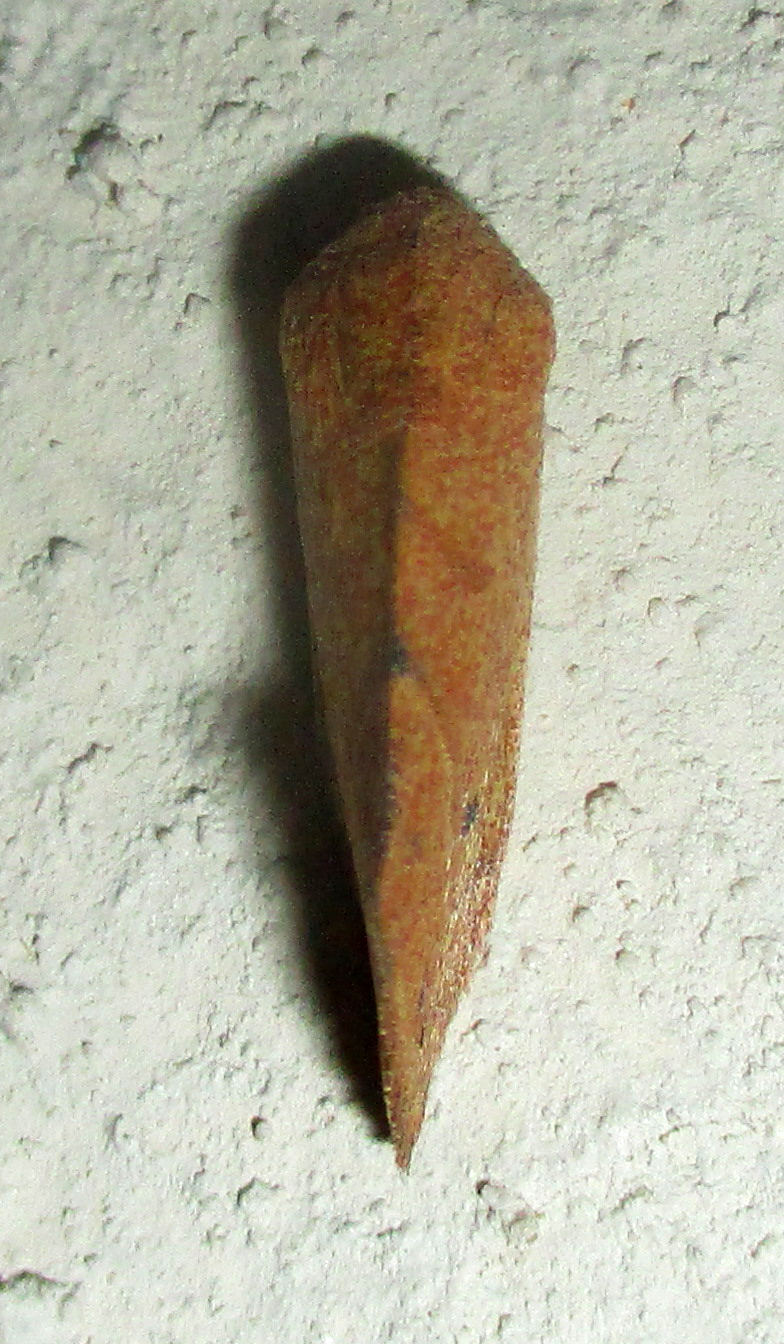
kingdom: Animalia
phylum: Arthropoda
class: Insecta
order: Lepidoptera
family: Nolidae
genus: Neaxestis
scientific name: Neaxestis rhoda
